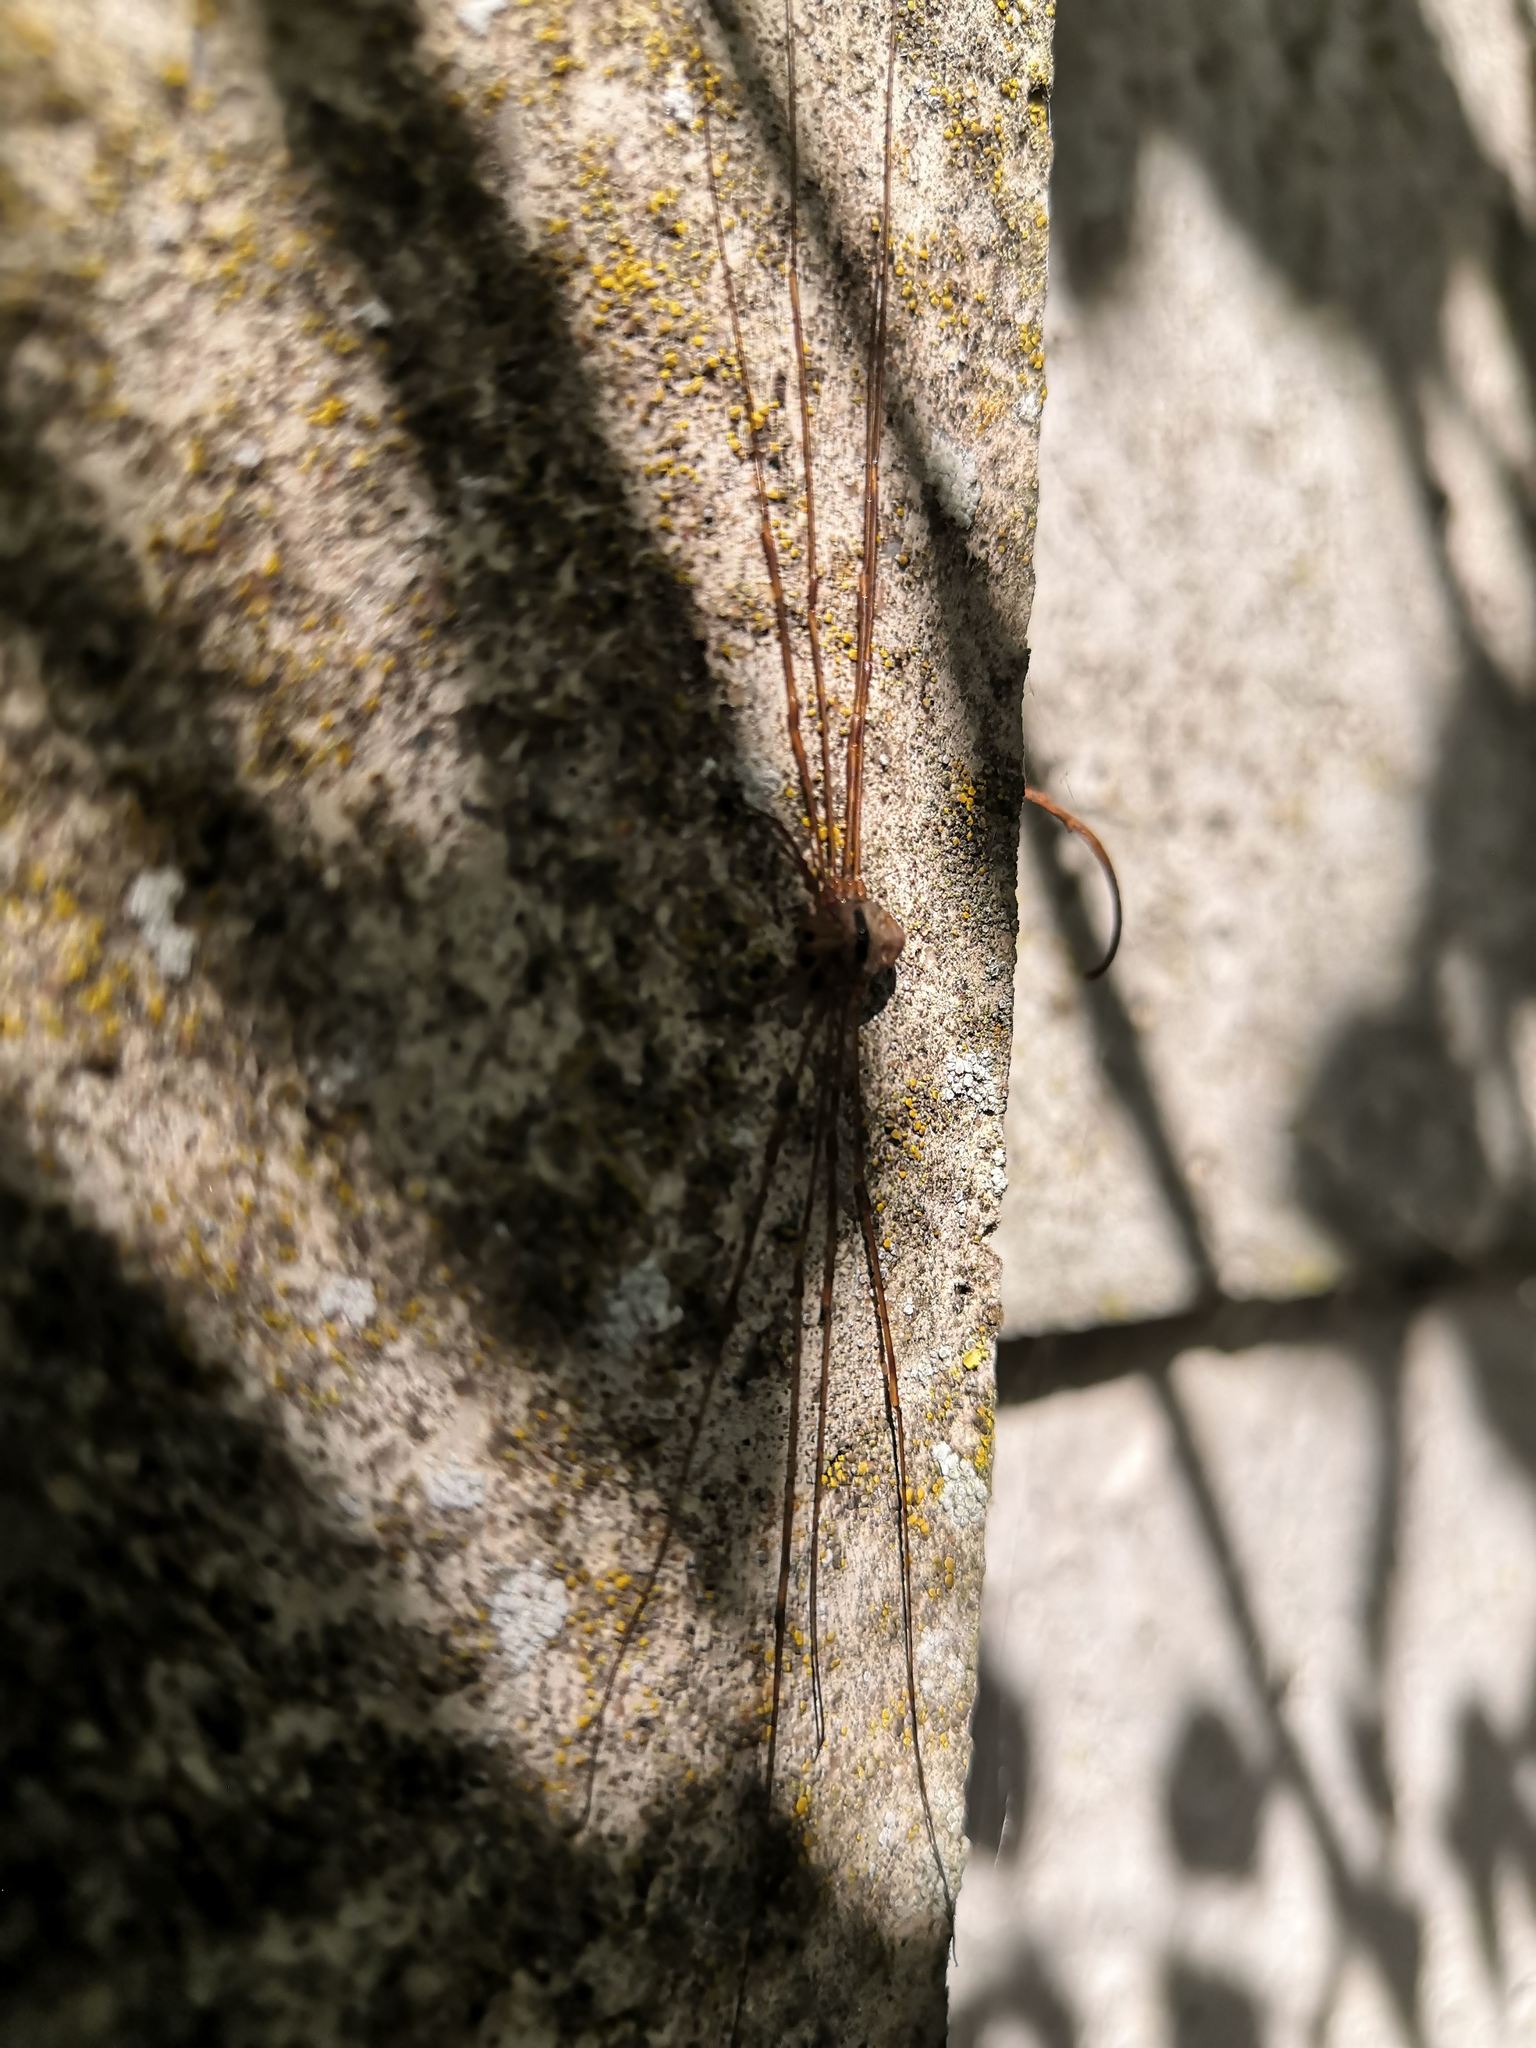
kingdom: Animalia
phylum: Arthropoda
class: Arachnida
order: Opiliones
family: Phalangiidae
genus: Dicranopalpus
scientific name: Dicranopalpus ramosus
